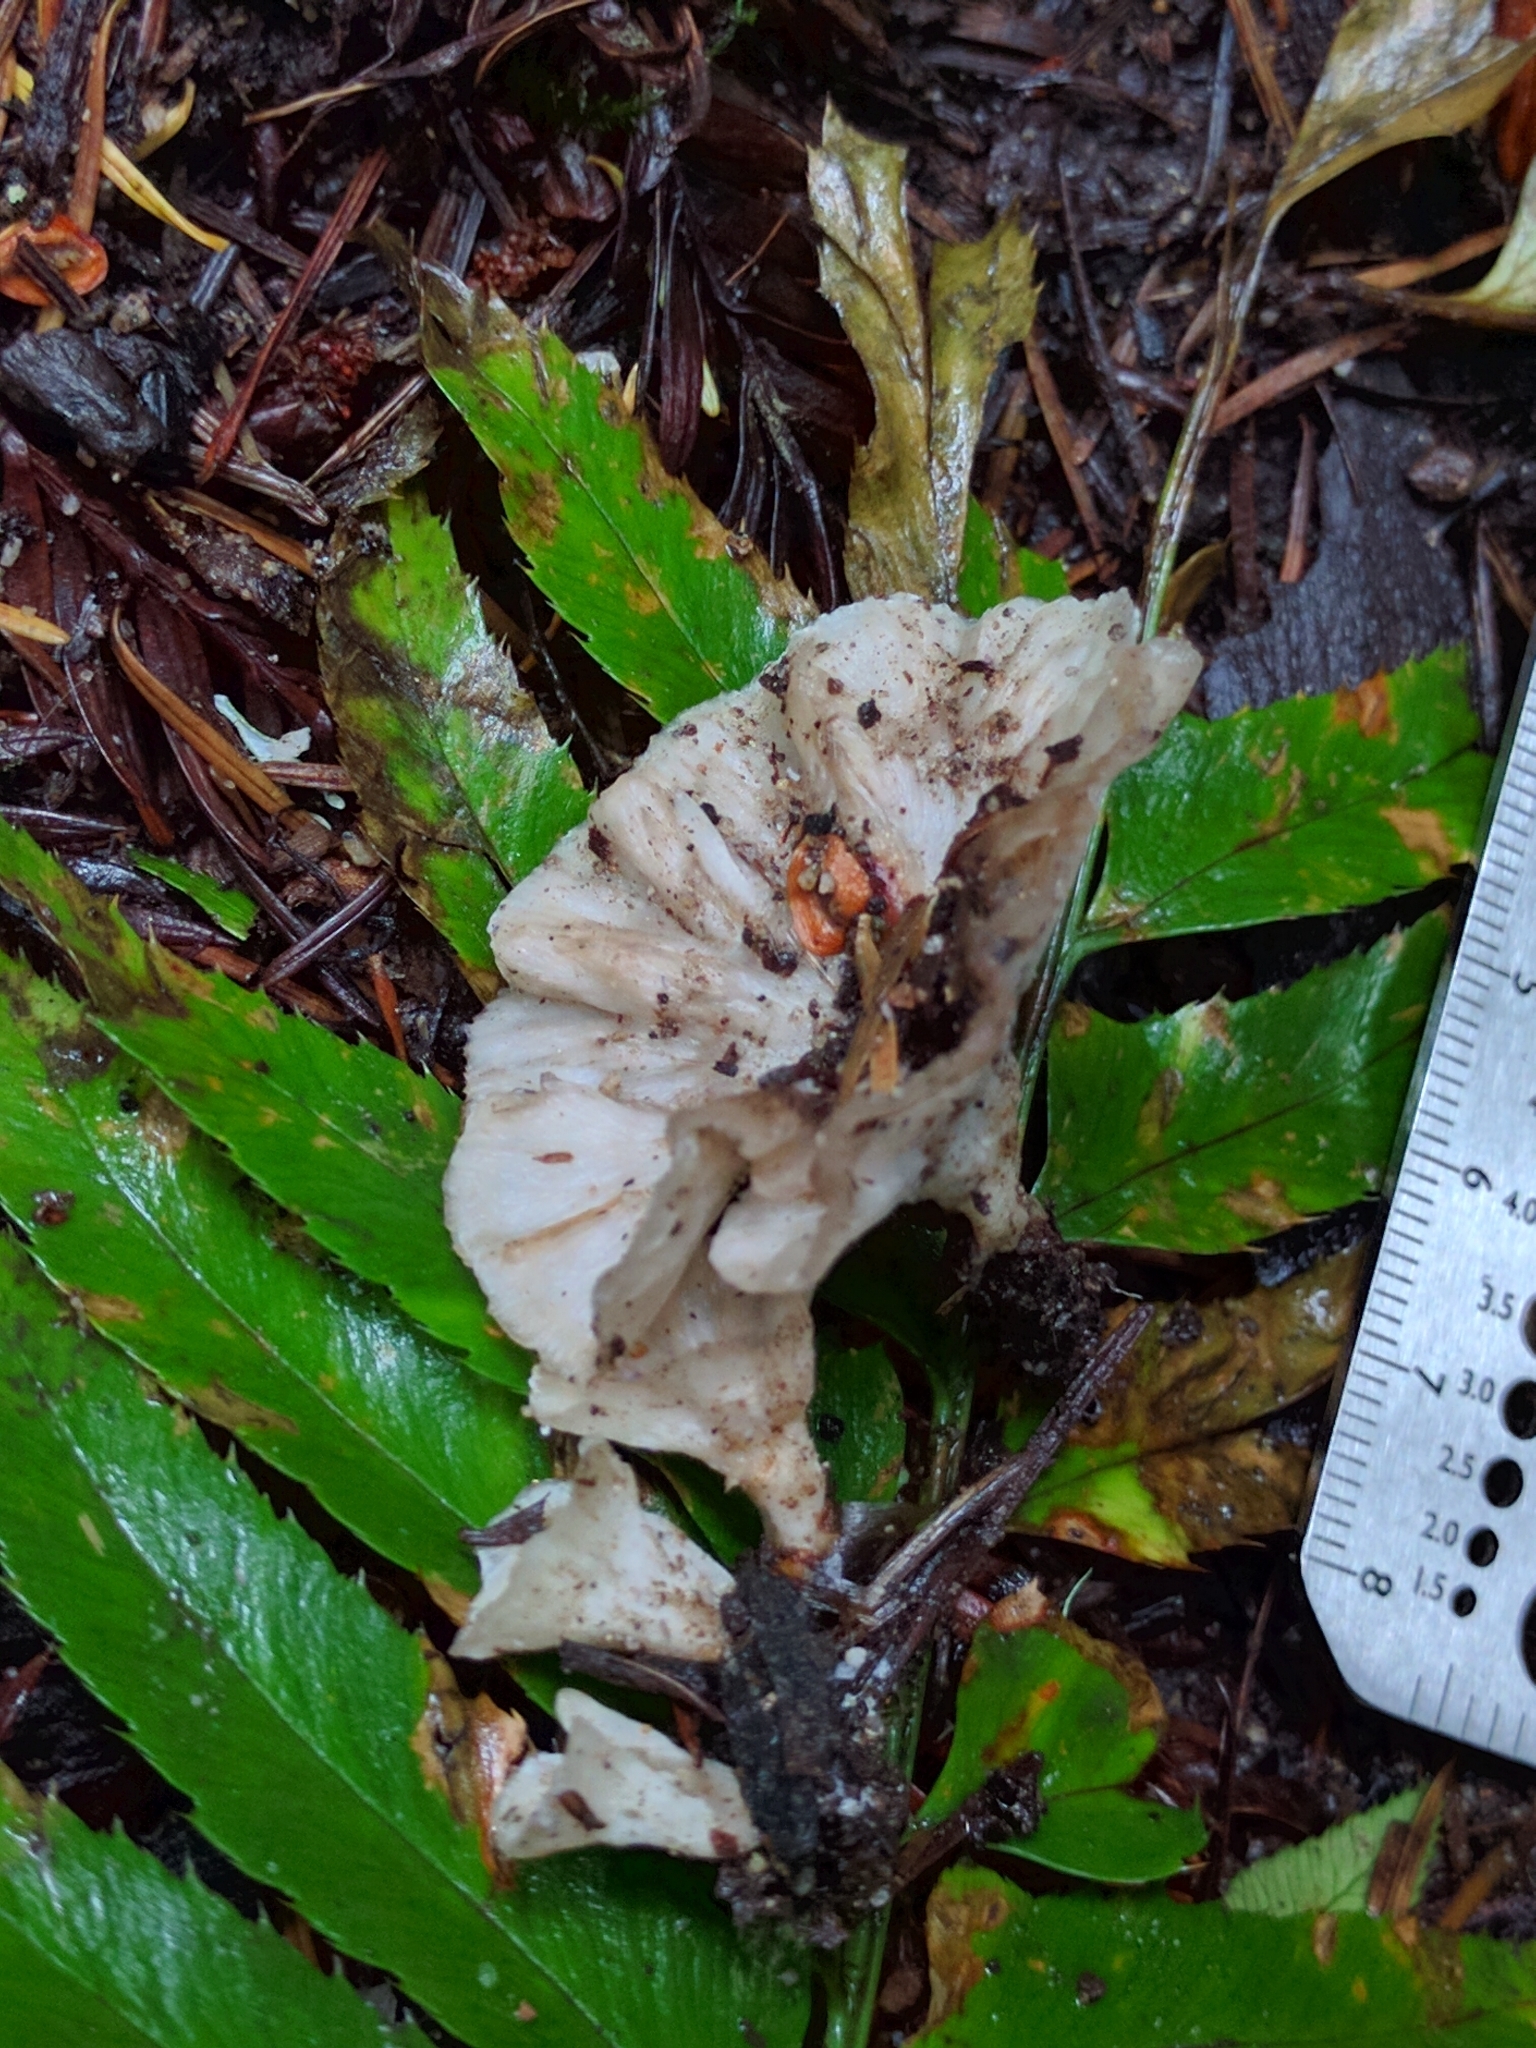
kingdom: Fungi
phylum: Basidiomycota
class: Agaricomycetes
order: Hymenochaetales
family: Rickenellaceae
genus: Cotylidia
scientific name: Cotylidia diaphana
